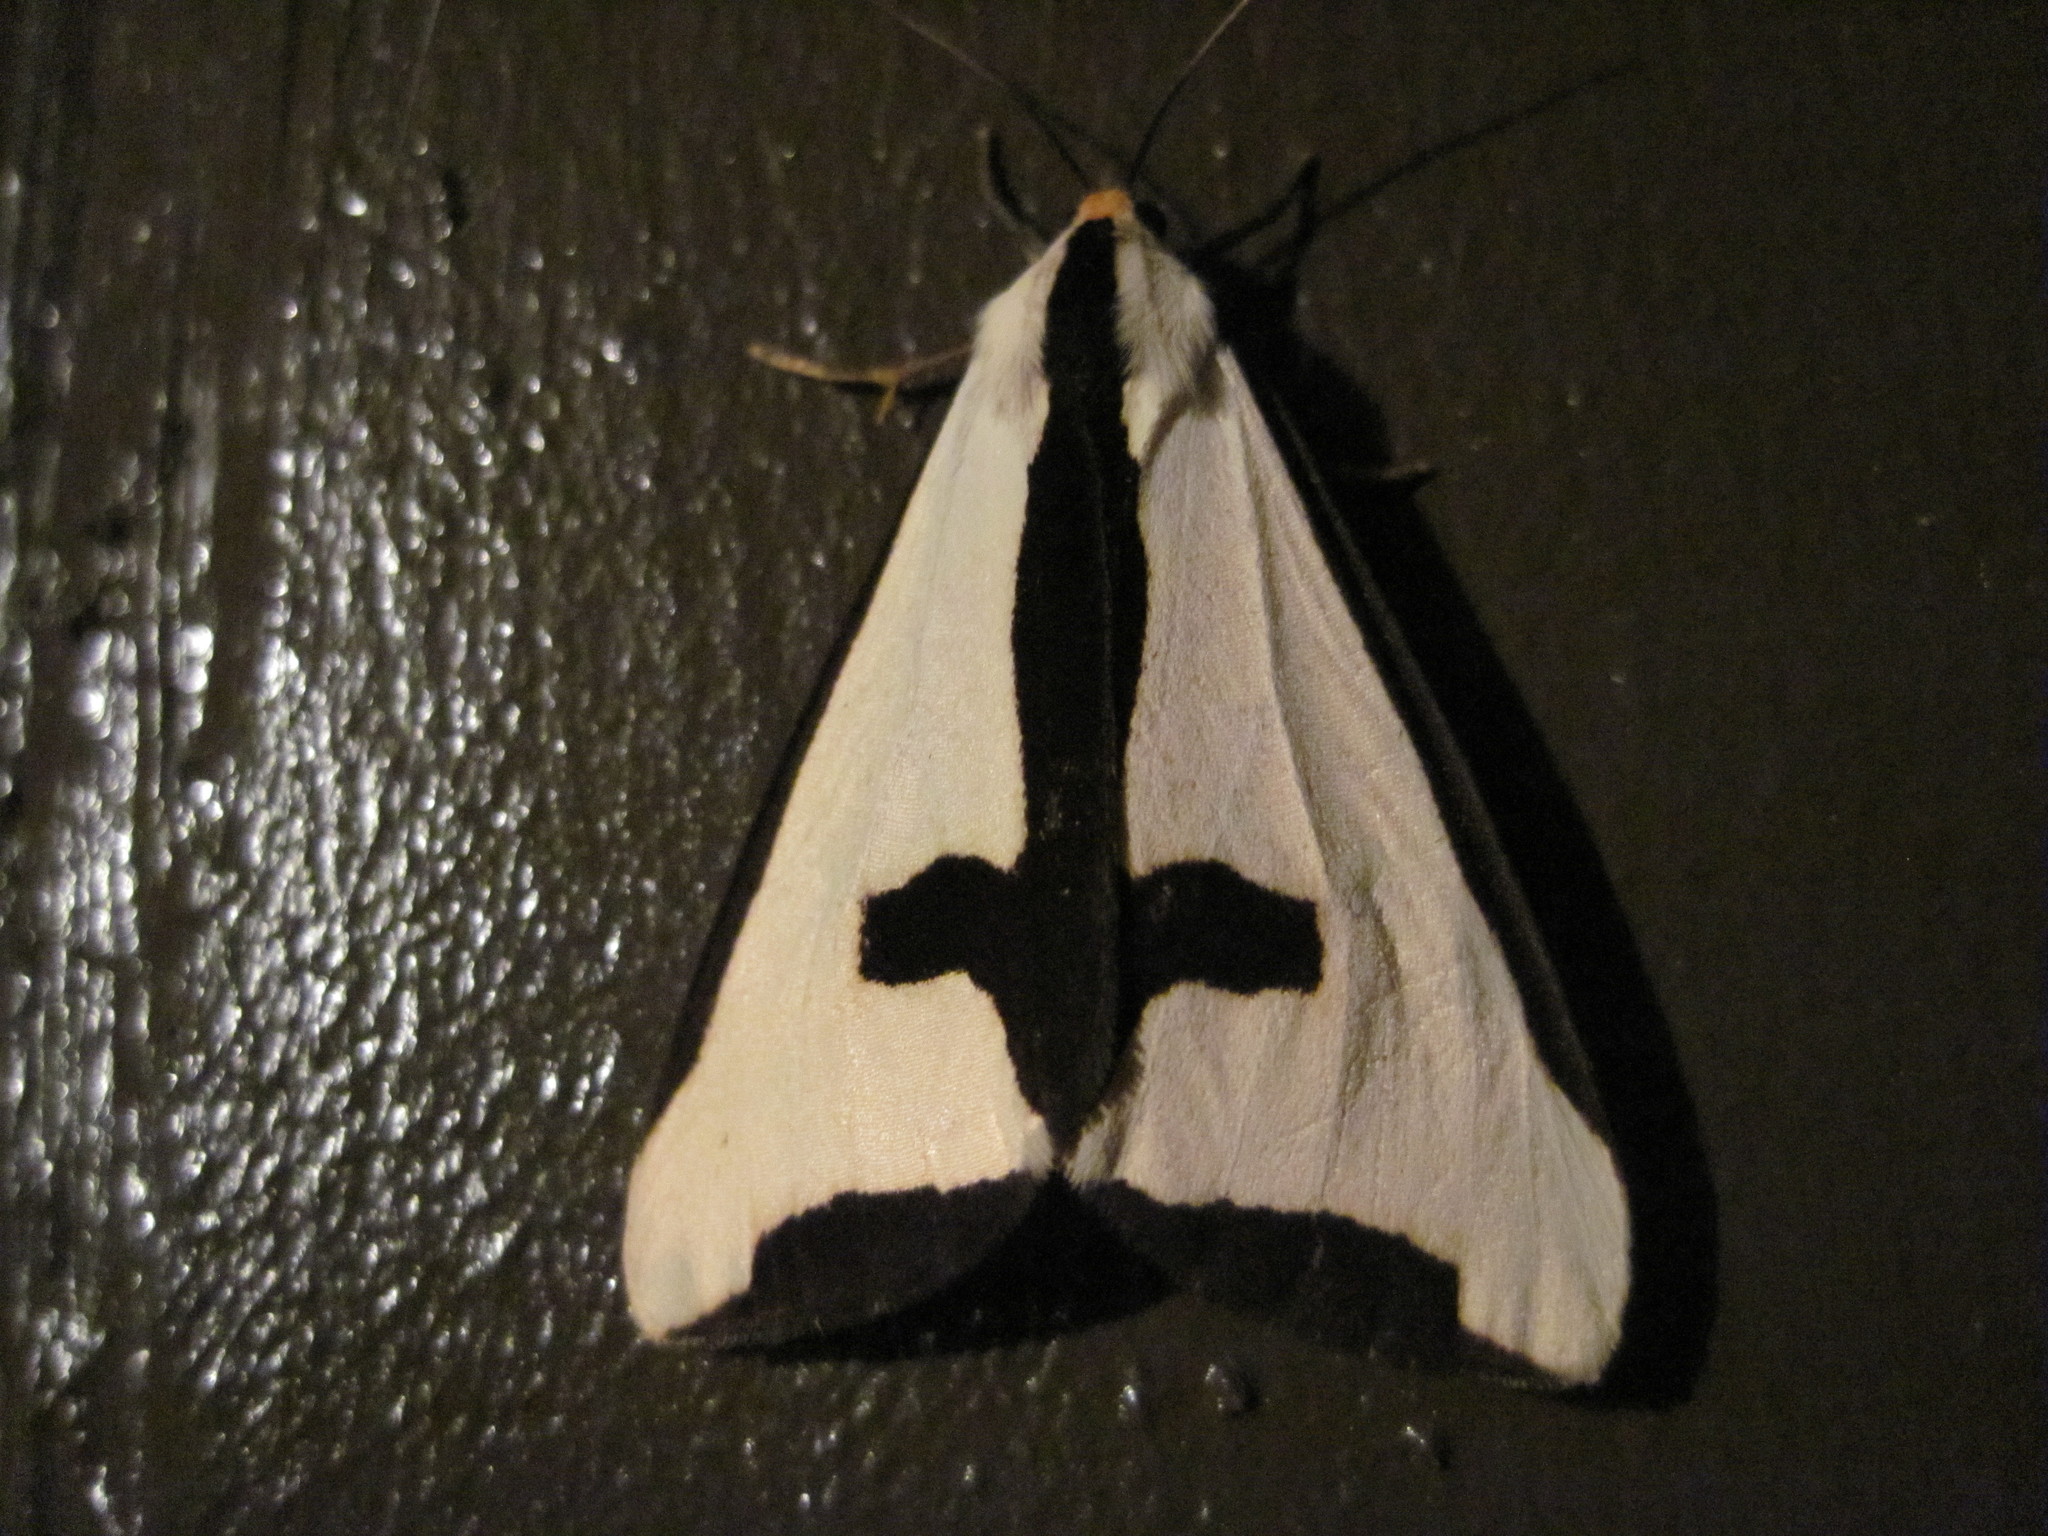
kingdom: Animalia
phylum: Arthropoda
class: Insecta
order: Lepidoptera
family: Erebidae
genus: Haploa
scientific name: Haploa clymene
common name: Clymene moth
